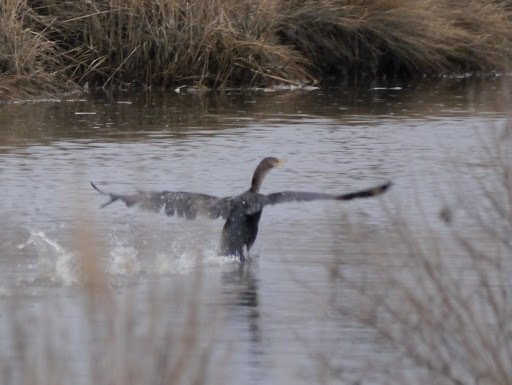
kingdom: Animalia
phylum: Chordata
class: Aves
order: Suliformes
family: Phalacrocoracidae
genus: Phalacrocorax
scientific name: Phalacrocorax auritus
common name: Double-crested cormorant
